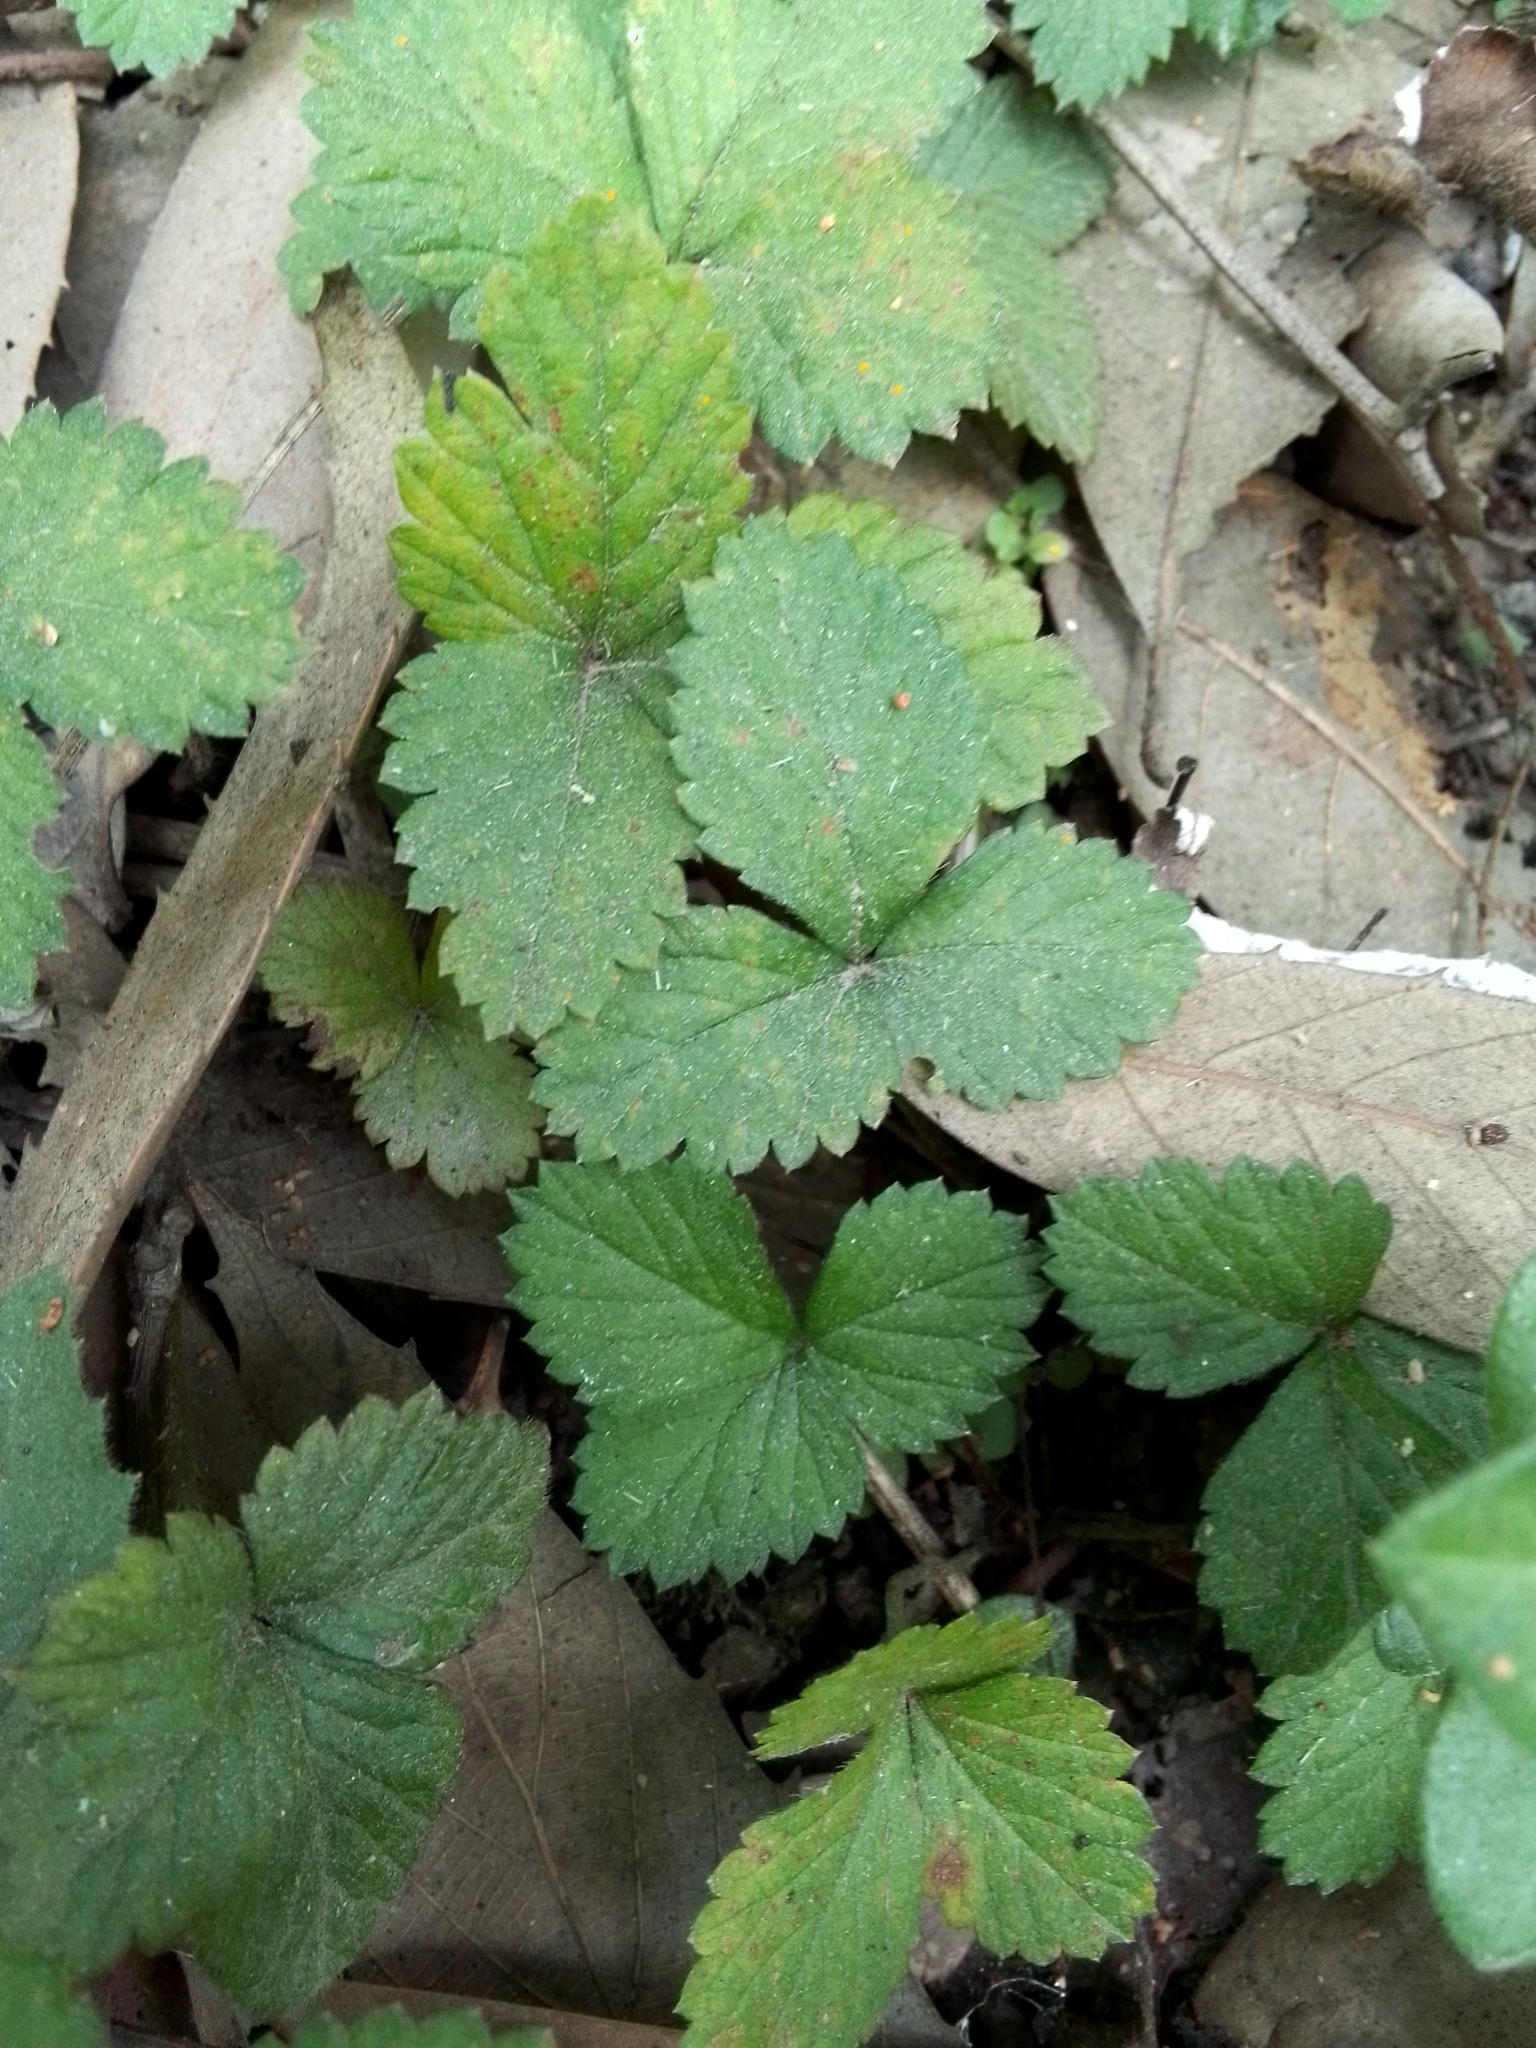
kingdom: Plantae
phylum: Tracheophyta
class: Magnoliopsida
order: Rosales
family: Rosaceae
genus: Potentilla
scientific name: Potentilla indica
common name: Yellow-flowered strawberry
